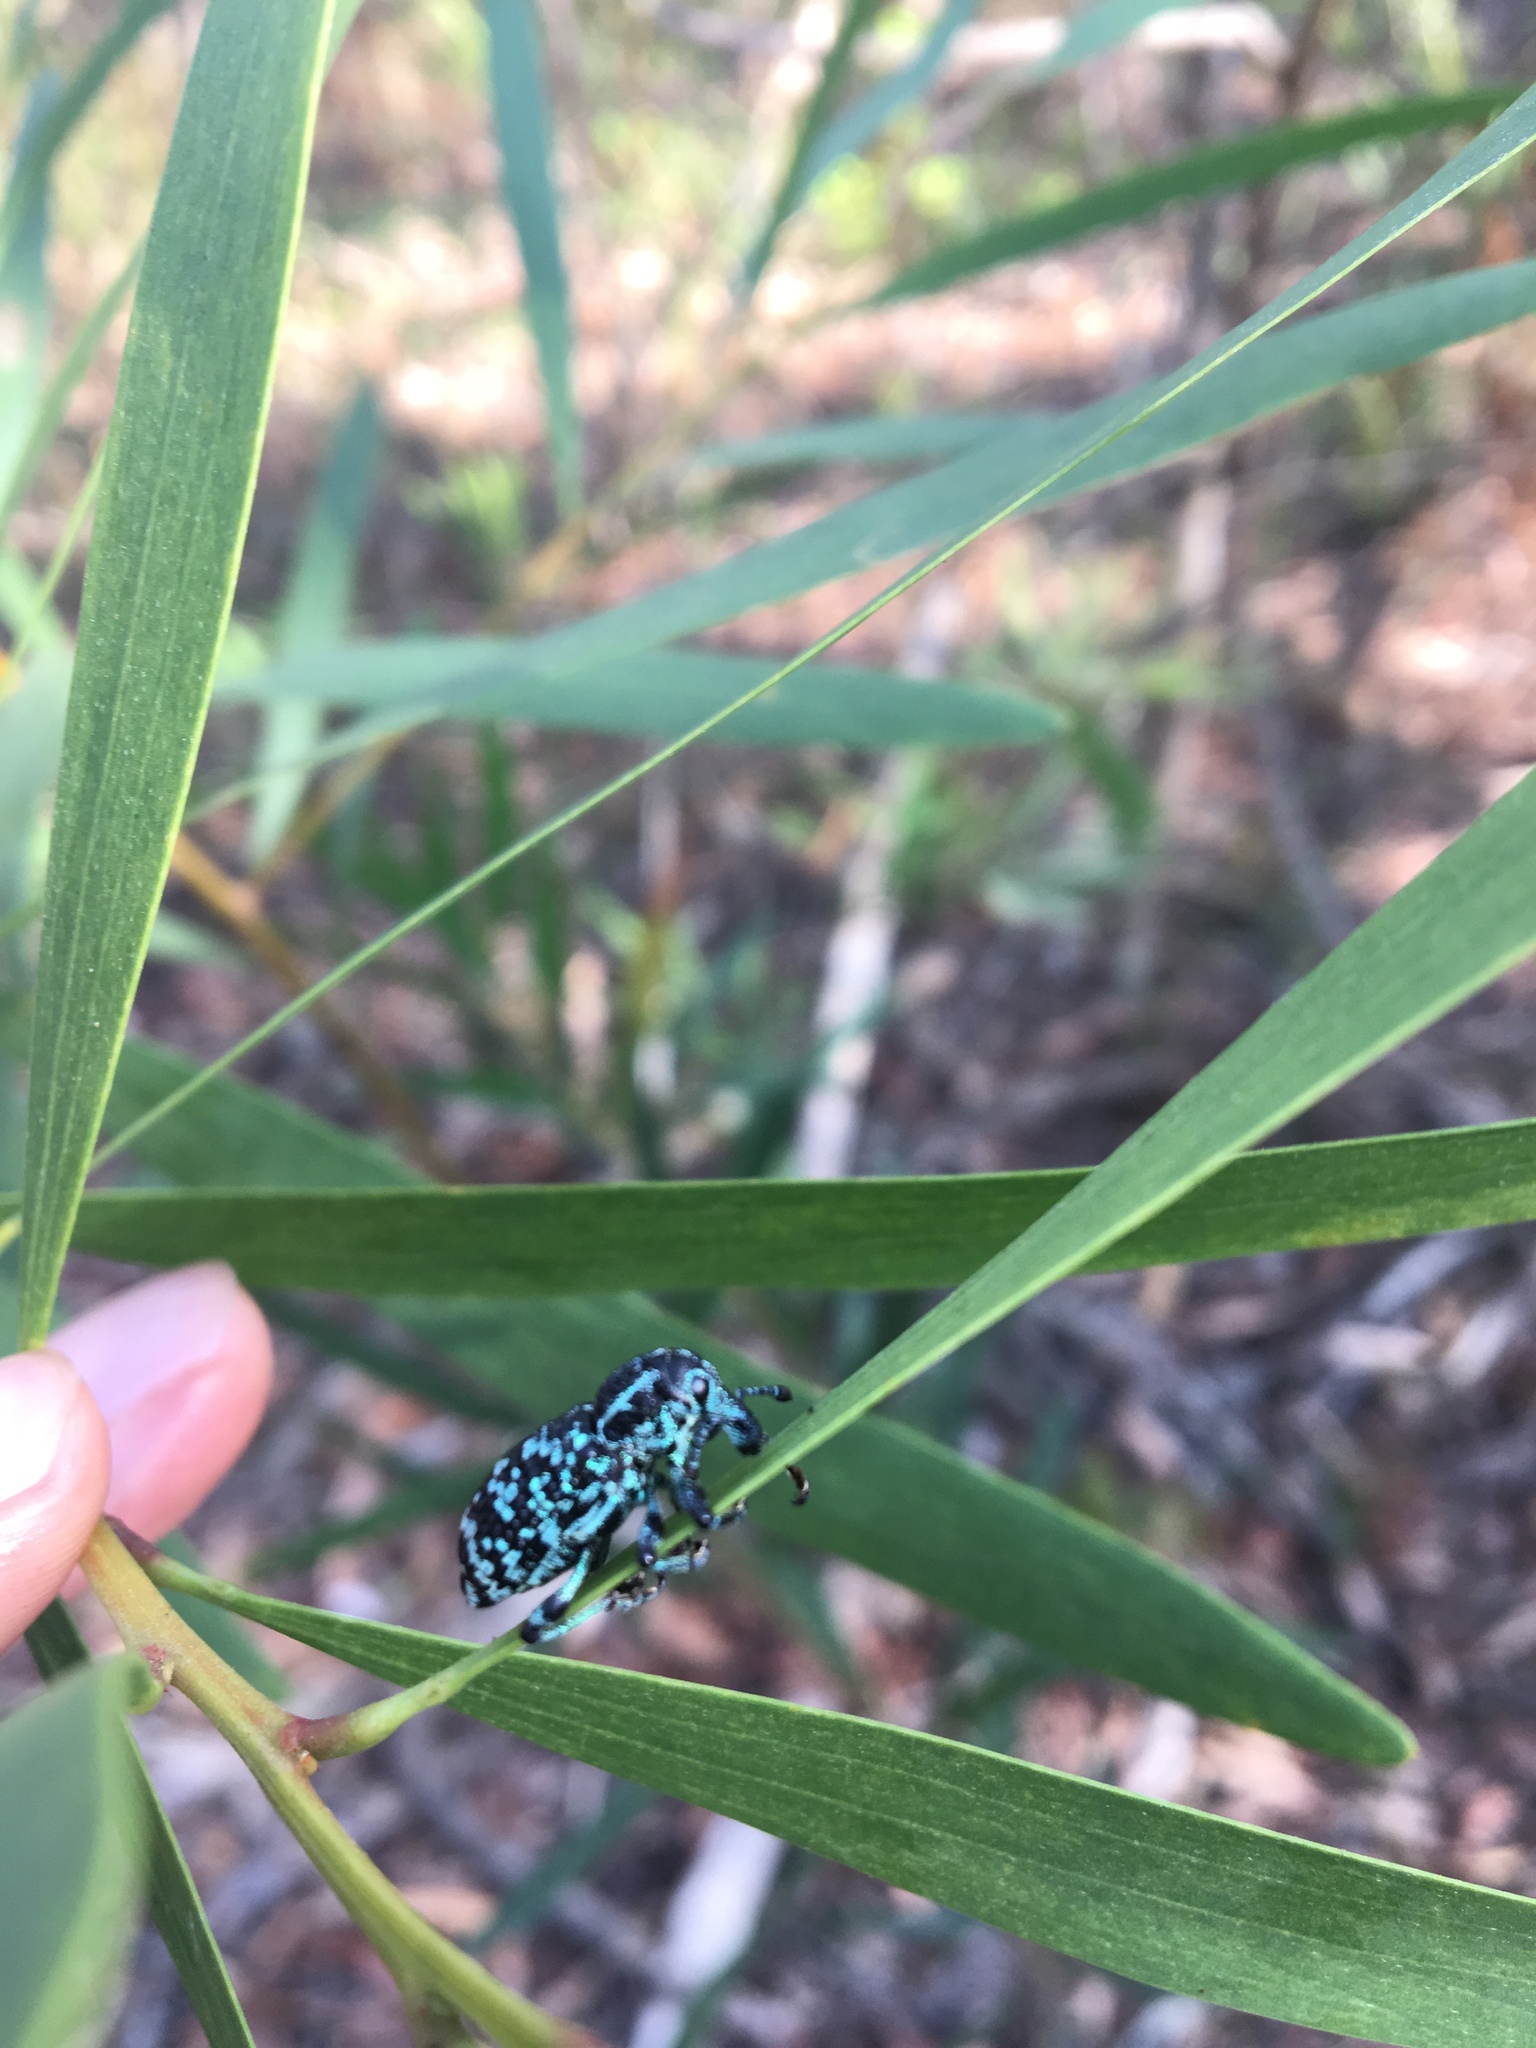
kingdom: Animalia
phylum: Arthropoda
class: Insecta
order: Coleoptera
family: Curculionidae
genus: Chrysolopus
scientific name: Chrysolopus spectabilis
